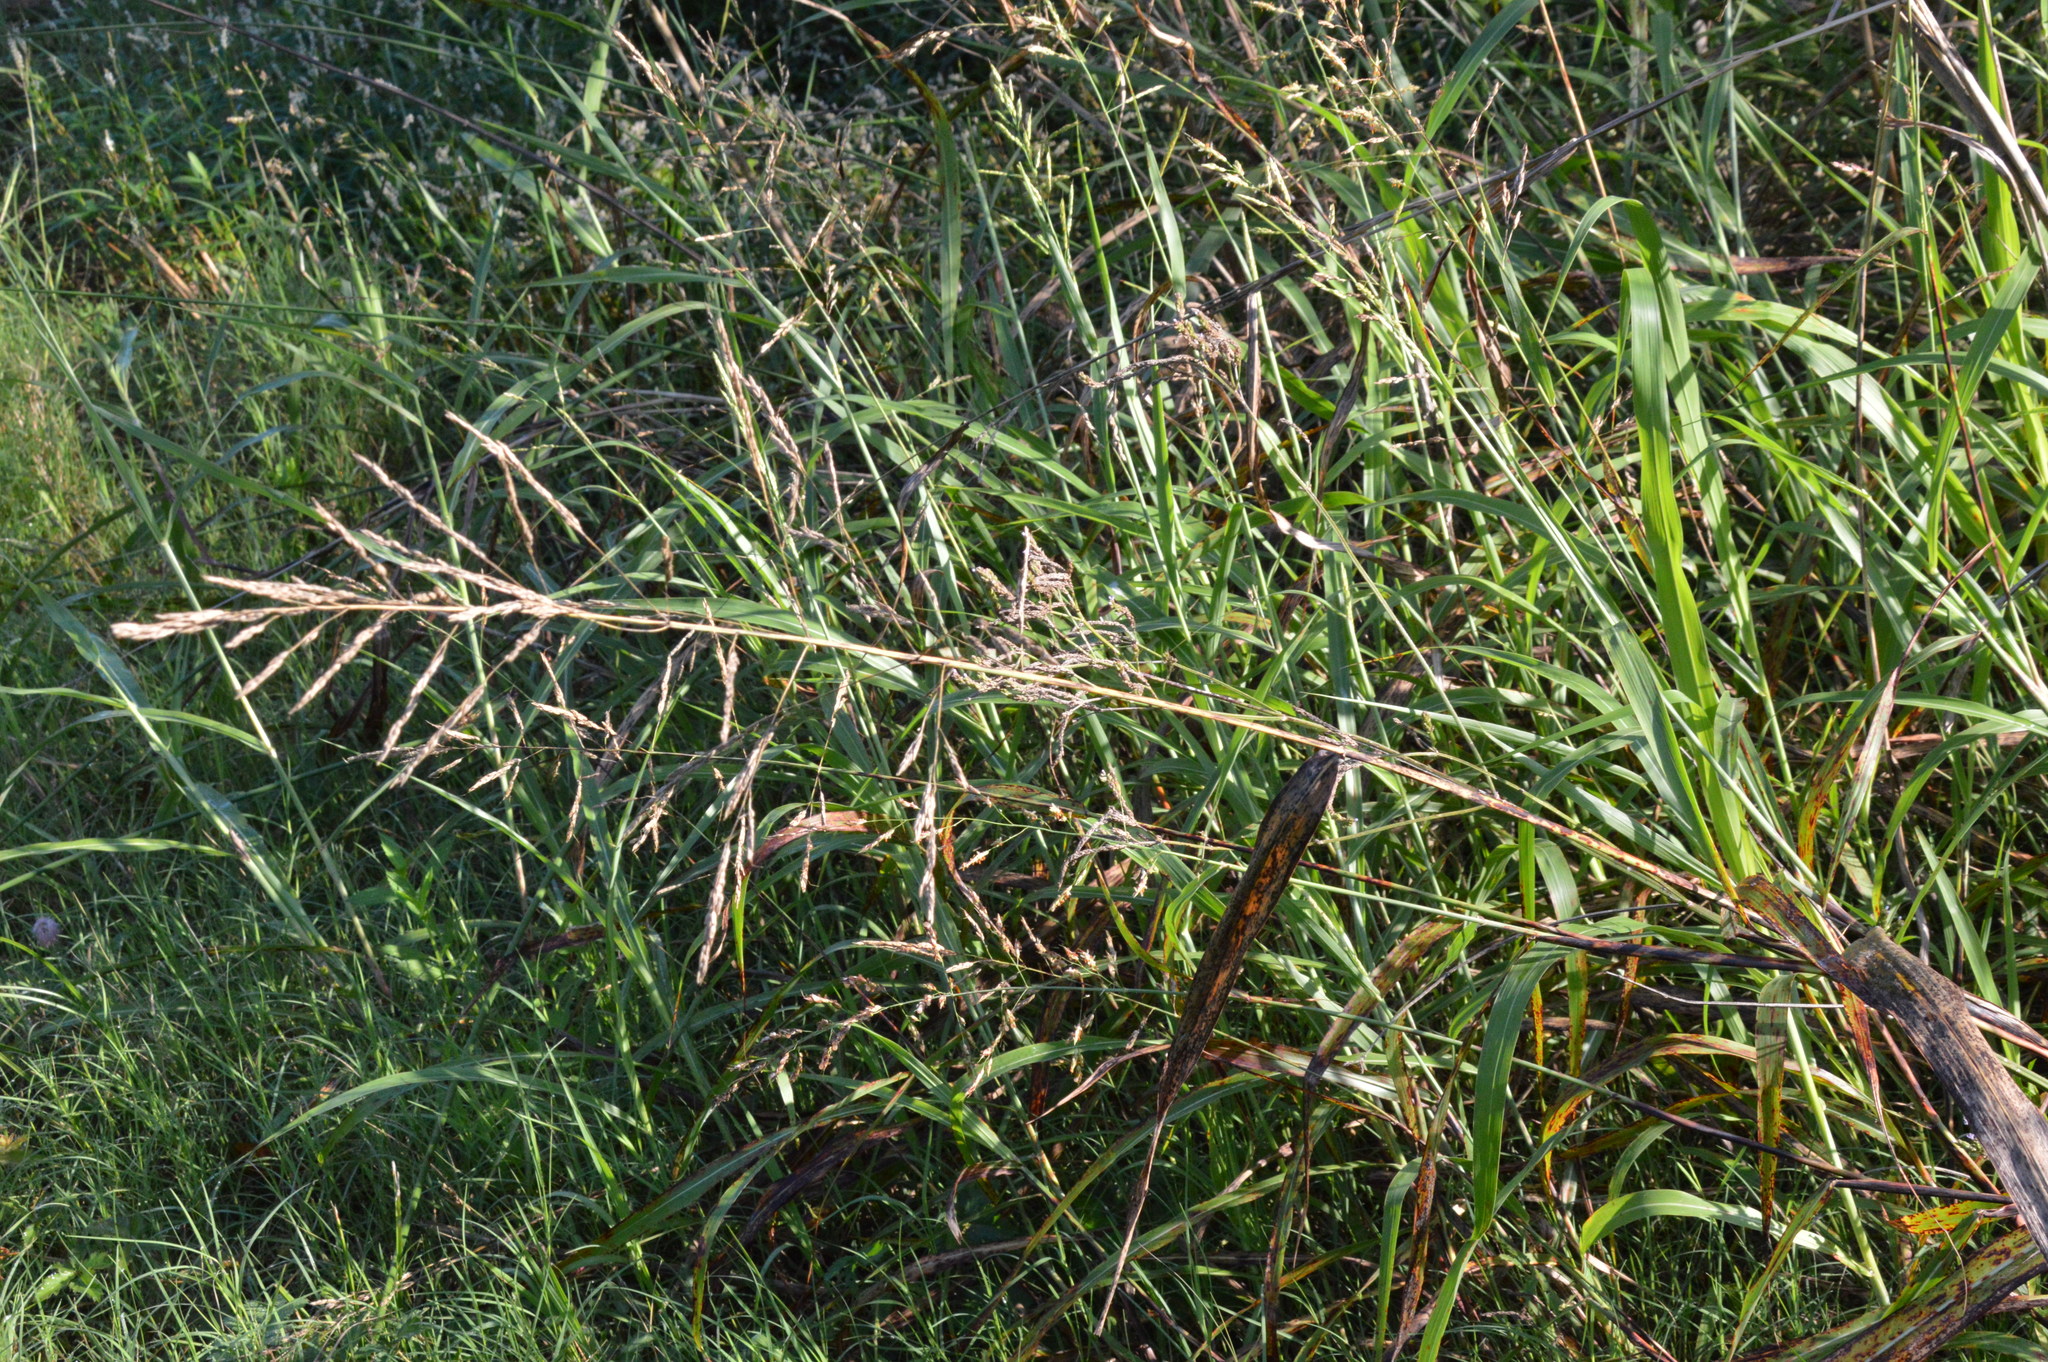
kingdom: Plantae
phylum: Tracheophyta
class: Liliopsida
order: Poales
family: Poaceae
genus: Sorghum
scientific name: Sorghum halepense
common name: Johnson-grass
